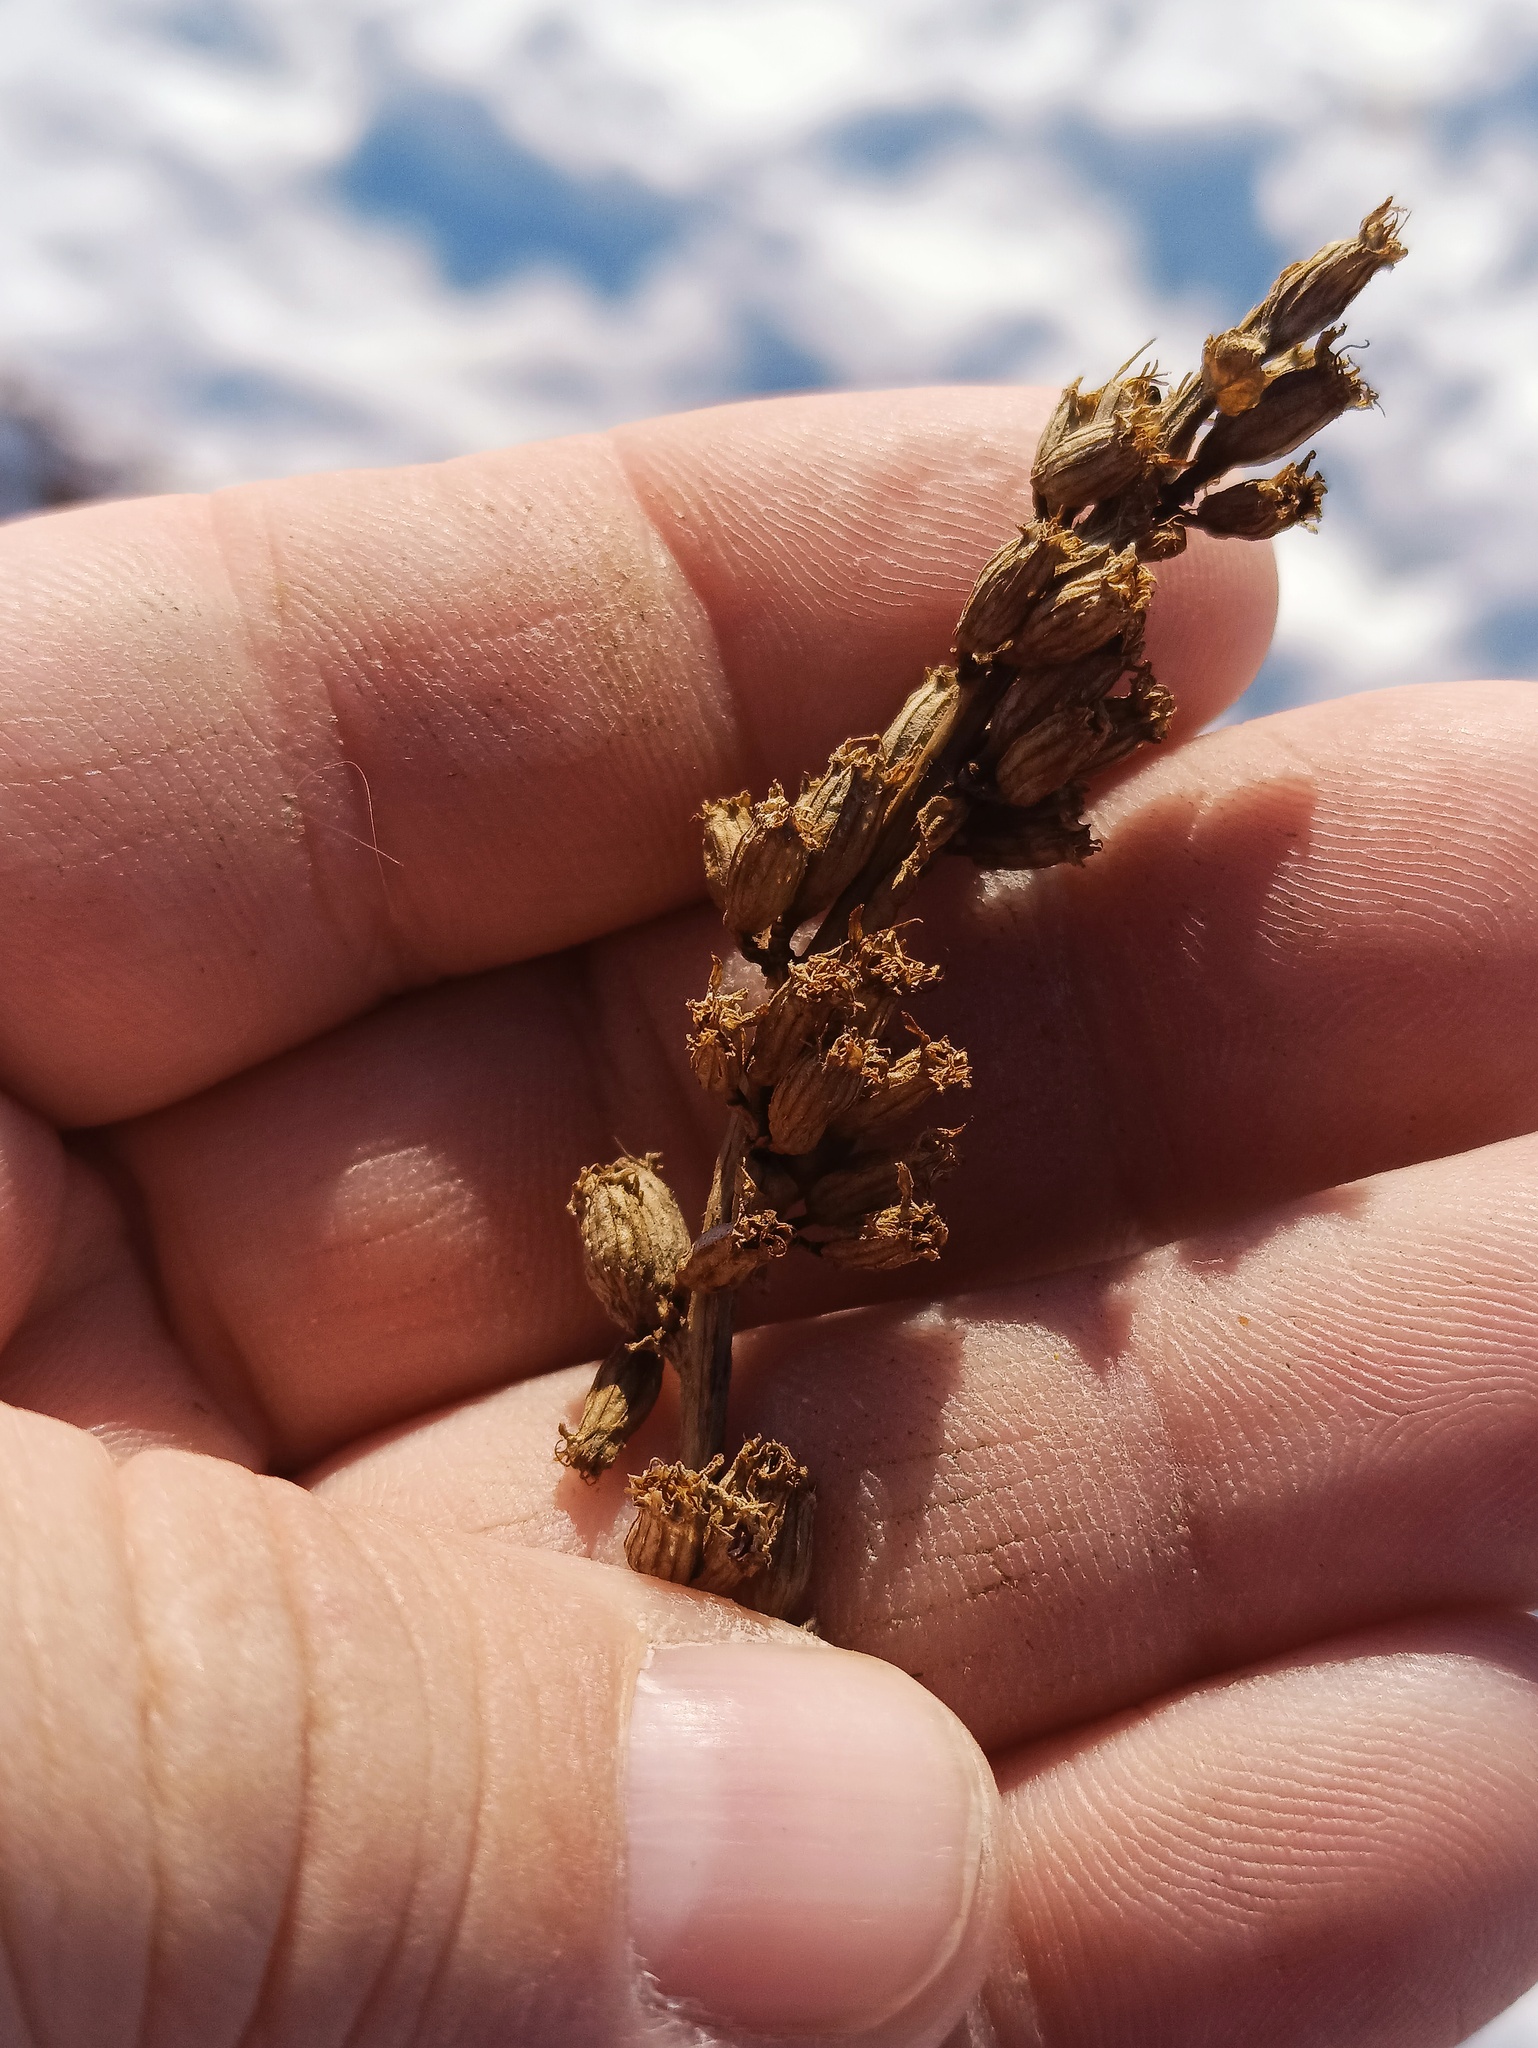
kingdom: Plantae
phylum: Tracheophyta
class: Magnoliopsida
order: Myrtales
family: Lythraceae
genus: Lythrum
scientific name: Lythrum salicaria
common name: Purple loosestrife
